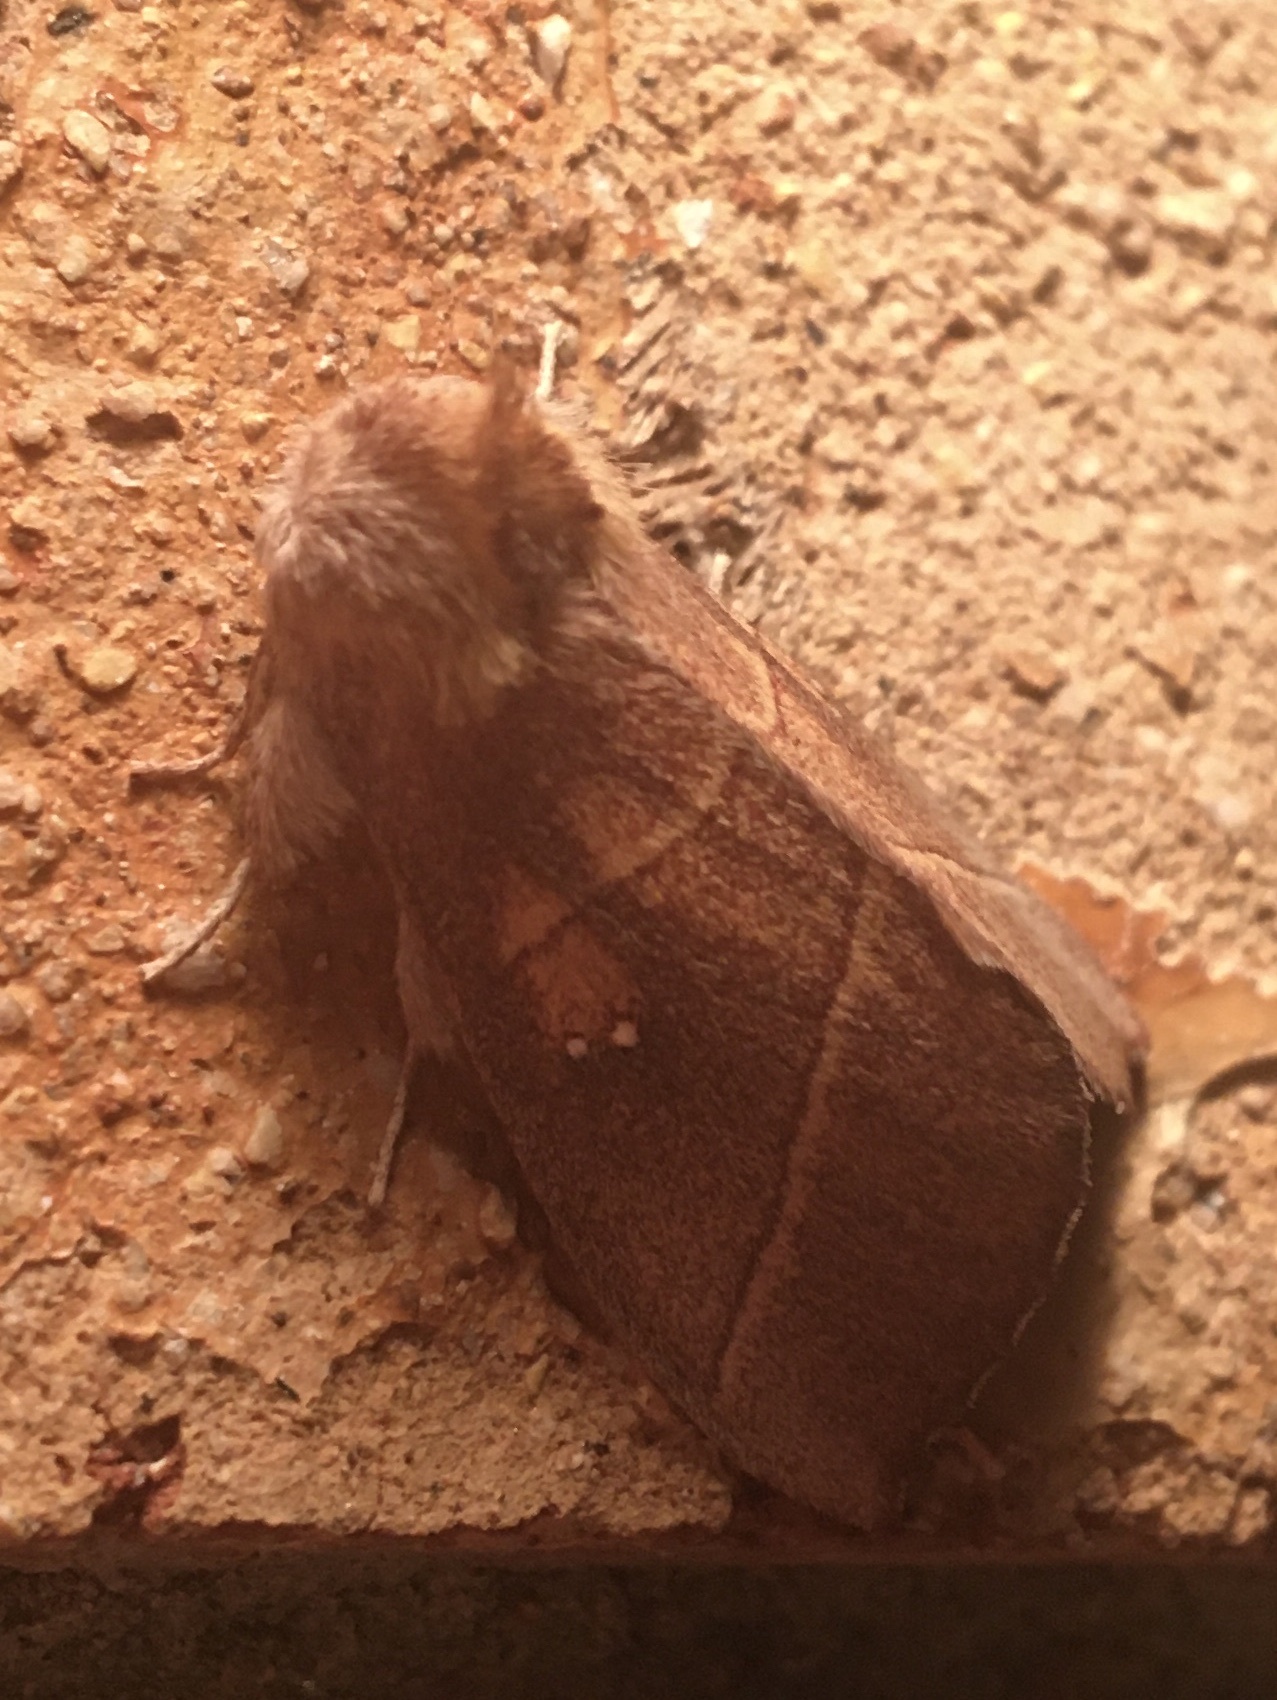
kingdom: Animalia
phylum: Arthropoda
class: Insecta
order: Lepidoptera
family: Notodontidae
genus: Nadata
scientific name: Nadata gibbosa
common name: White-dotted prominent
